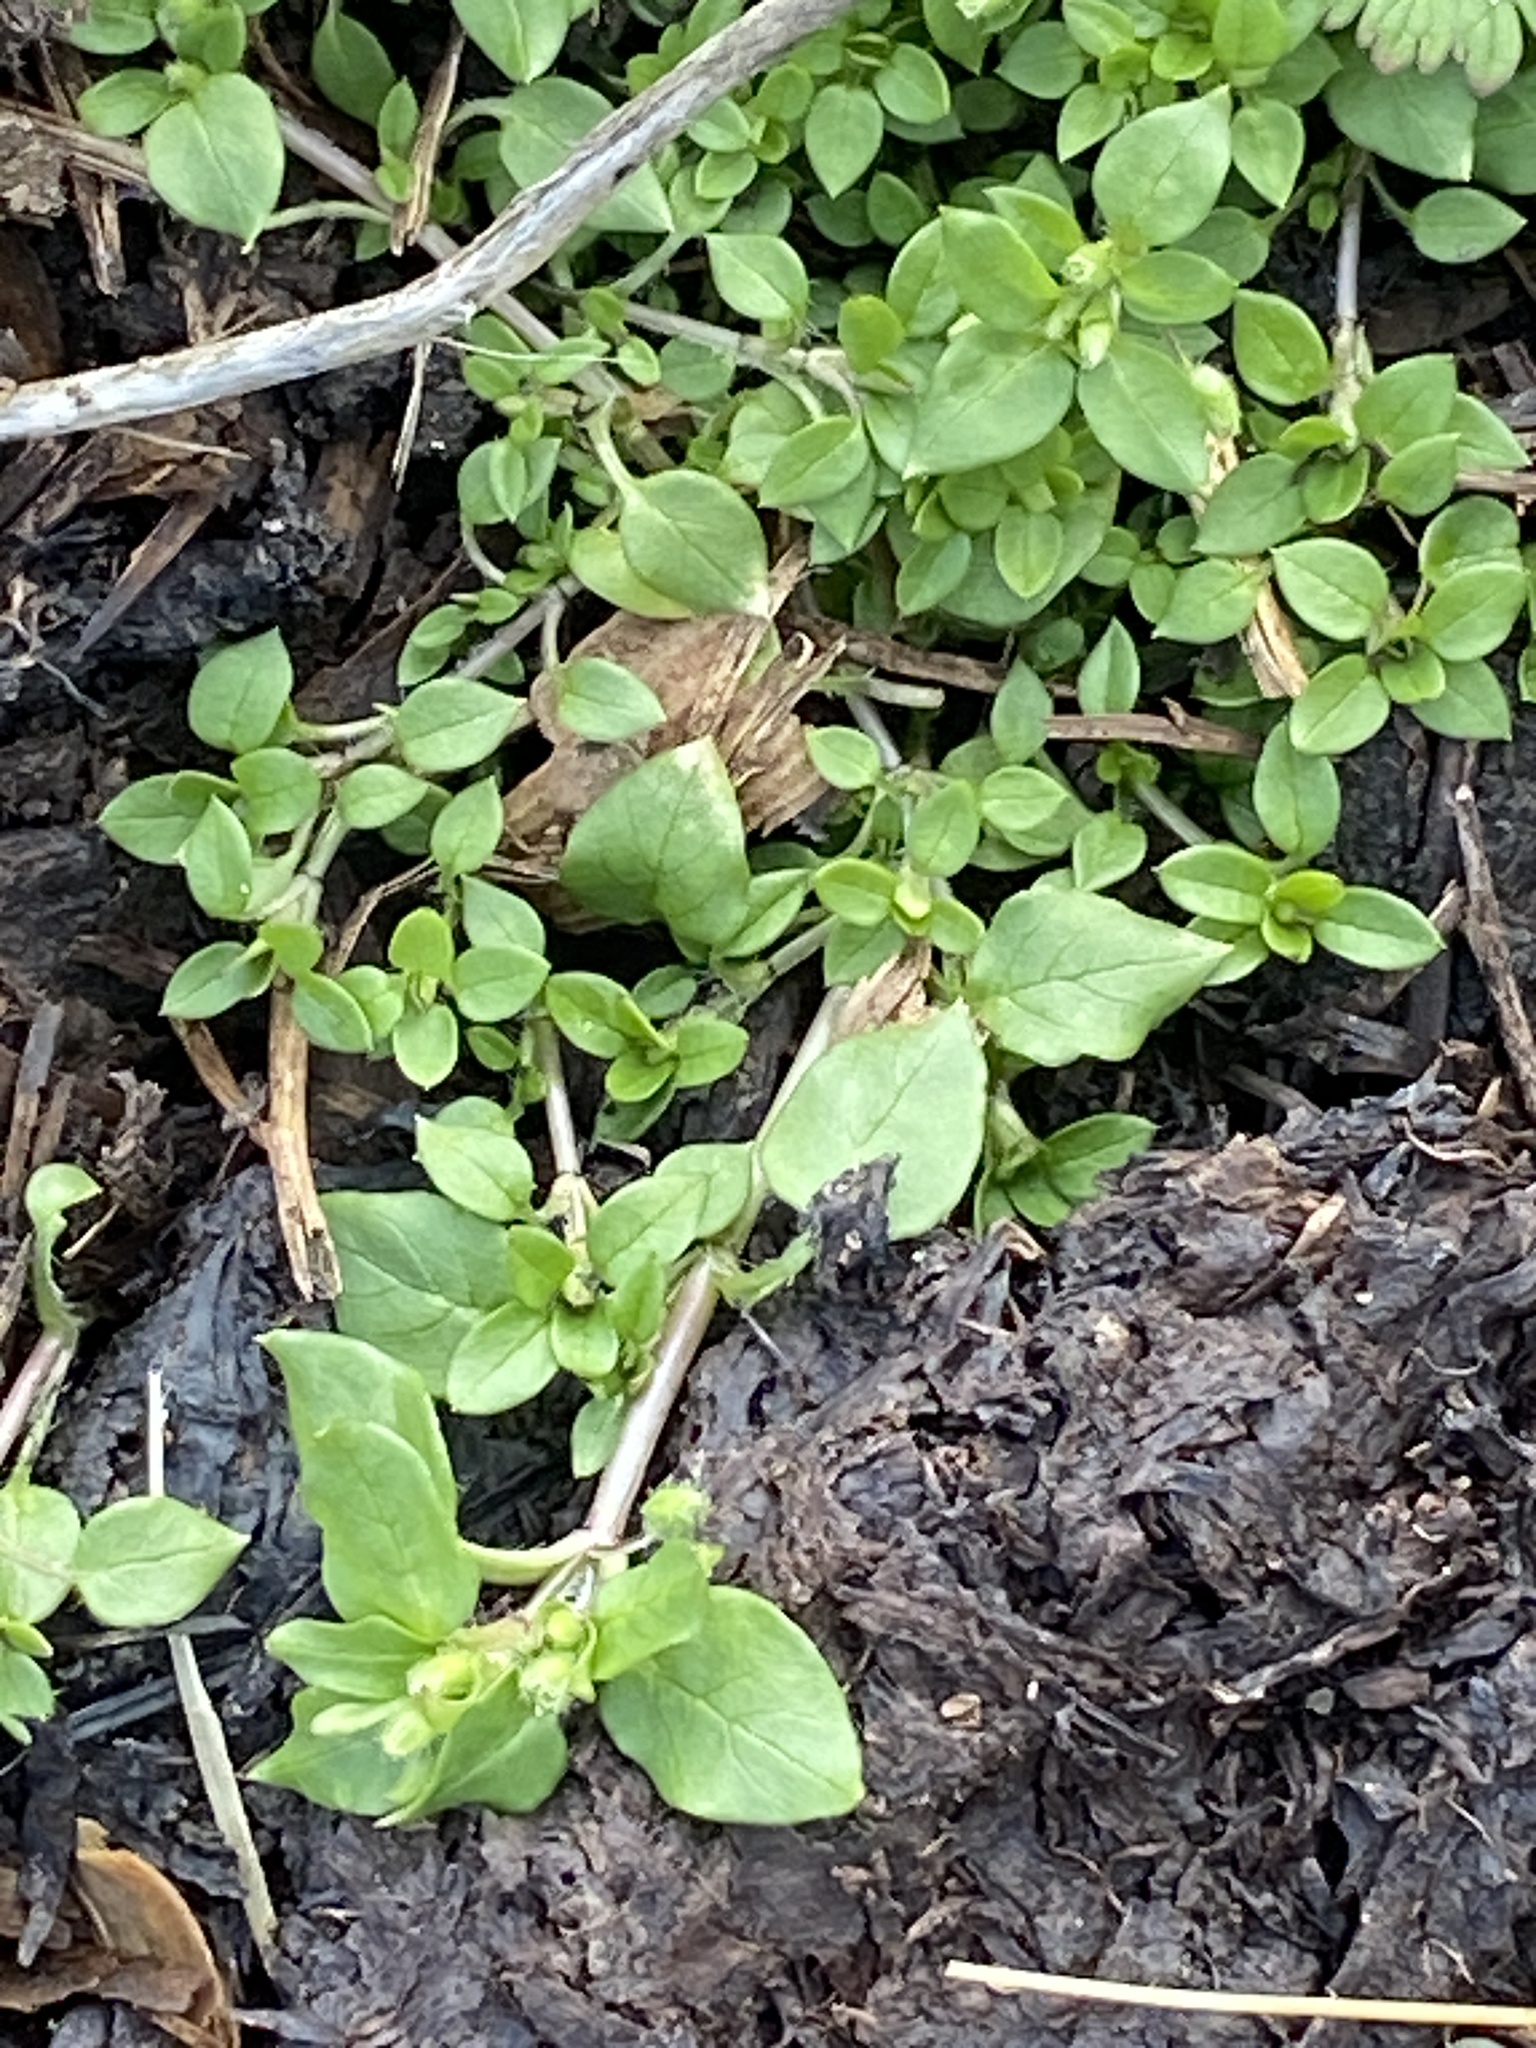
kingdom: Plantae
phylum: Tracheophyta
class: Magnoliopsida
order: Caryophyllales
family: Caryophyllaceae
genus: Stellaria
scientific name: Stellaria media
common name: Common chickweed
